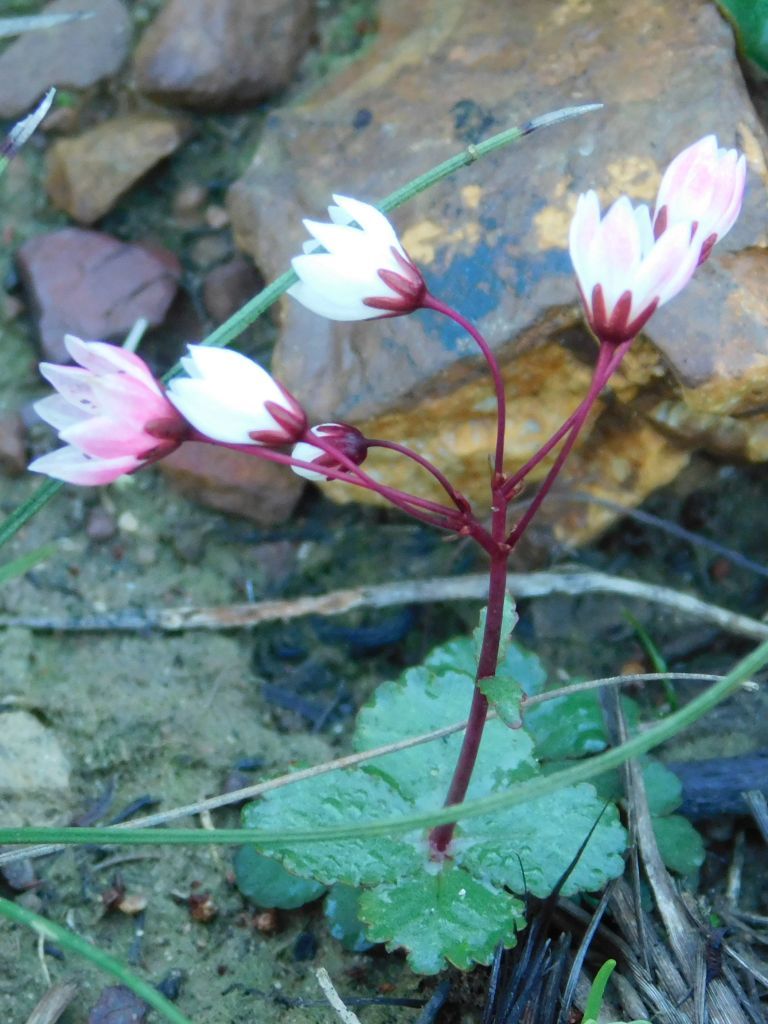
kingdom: Plantae
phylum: Tracheophyta
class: Magnoliopsida
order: Saxifragales
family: Crassulaceae
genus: Crassula
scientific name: Crassula capensis
